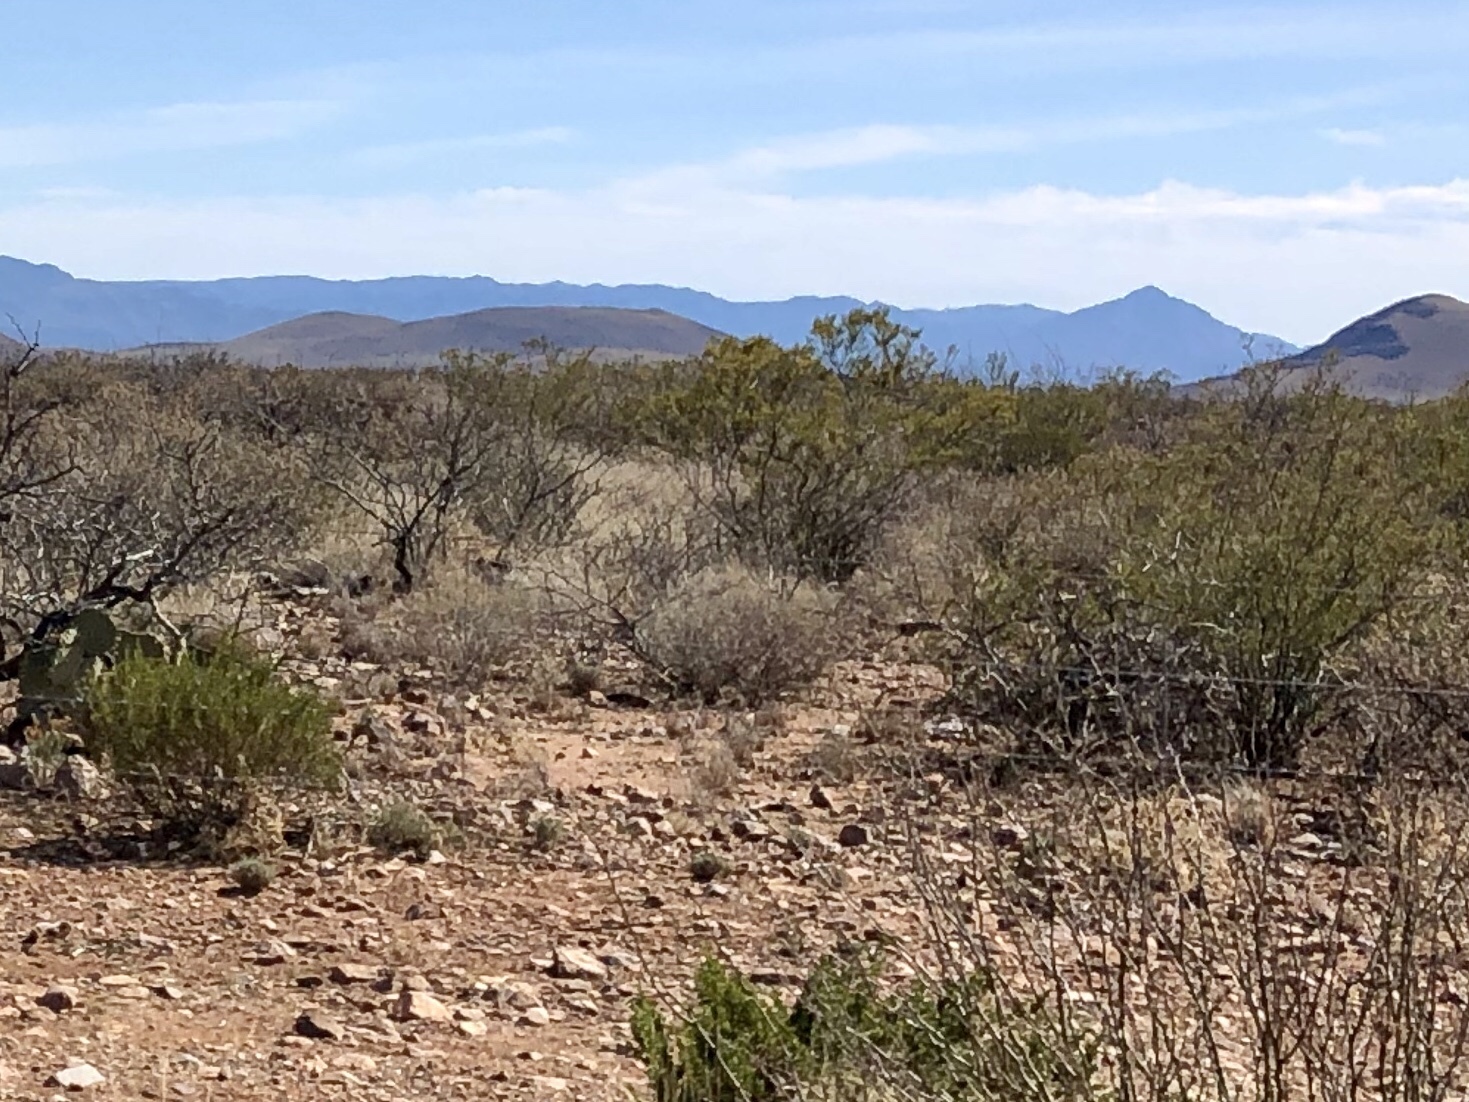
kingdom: Plantae
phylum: Tracheophyta
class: Magnoliopsida
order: Zygophyllales
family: Zygophyllaceae
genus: Larrea
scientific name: Larrea tridentata
